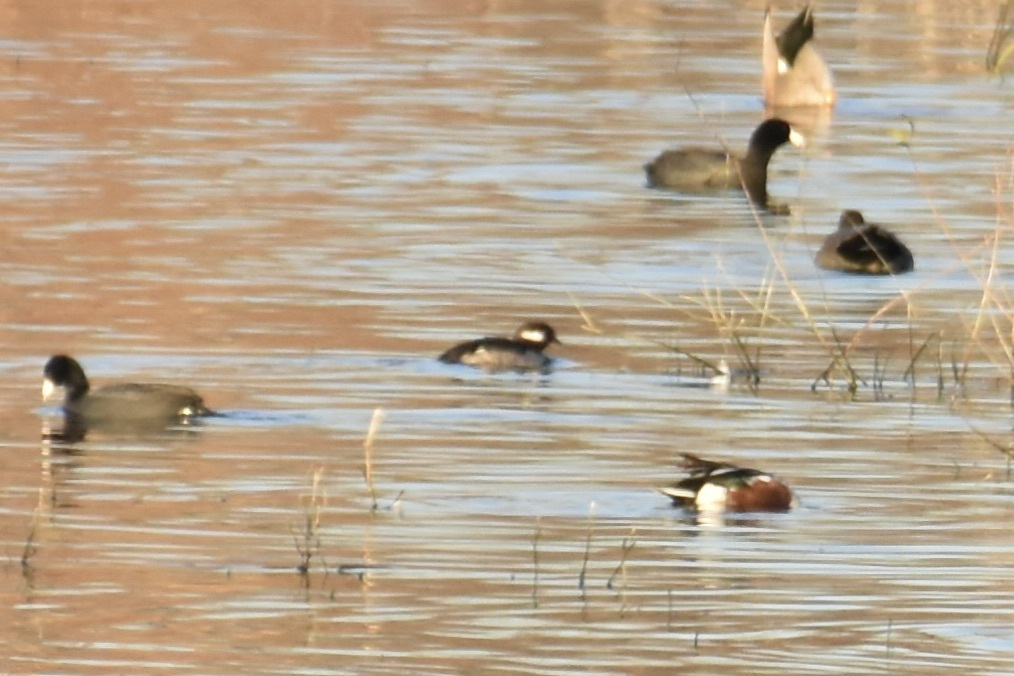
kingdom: Animalia
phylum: Chordata
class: Aves
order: Anseriformes
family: Anatidae
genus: Bucephala
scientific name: Bucephala albeola
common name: Bufflehead
